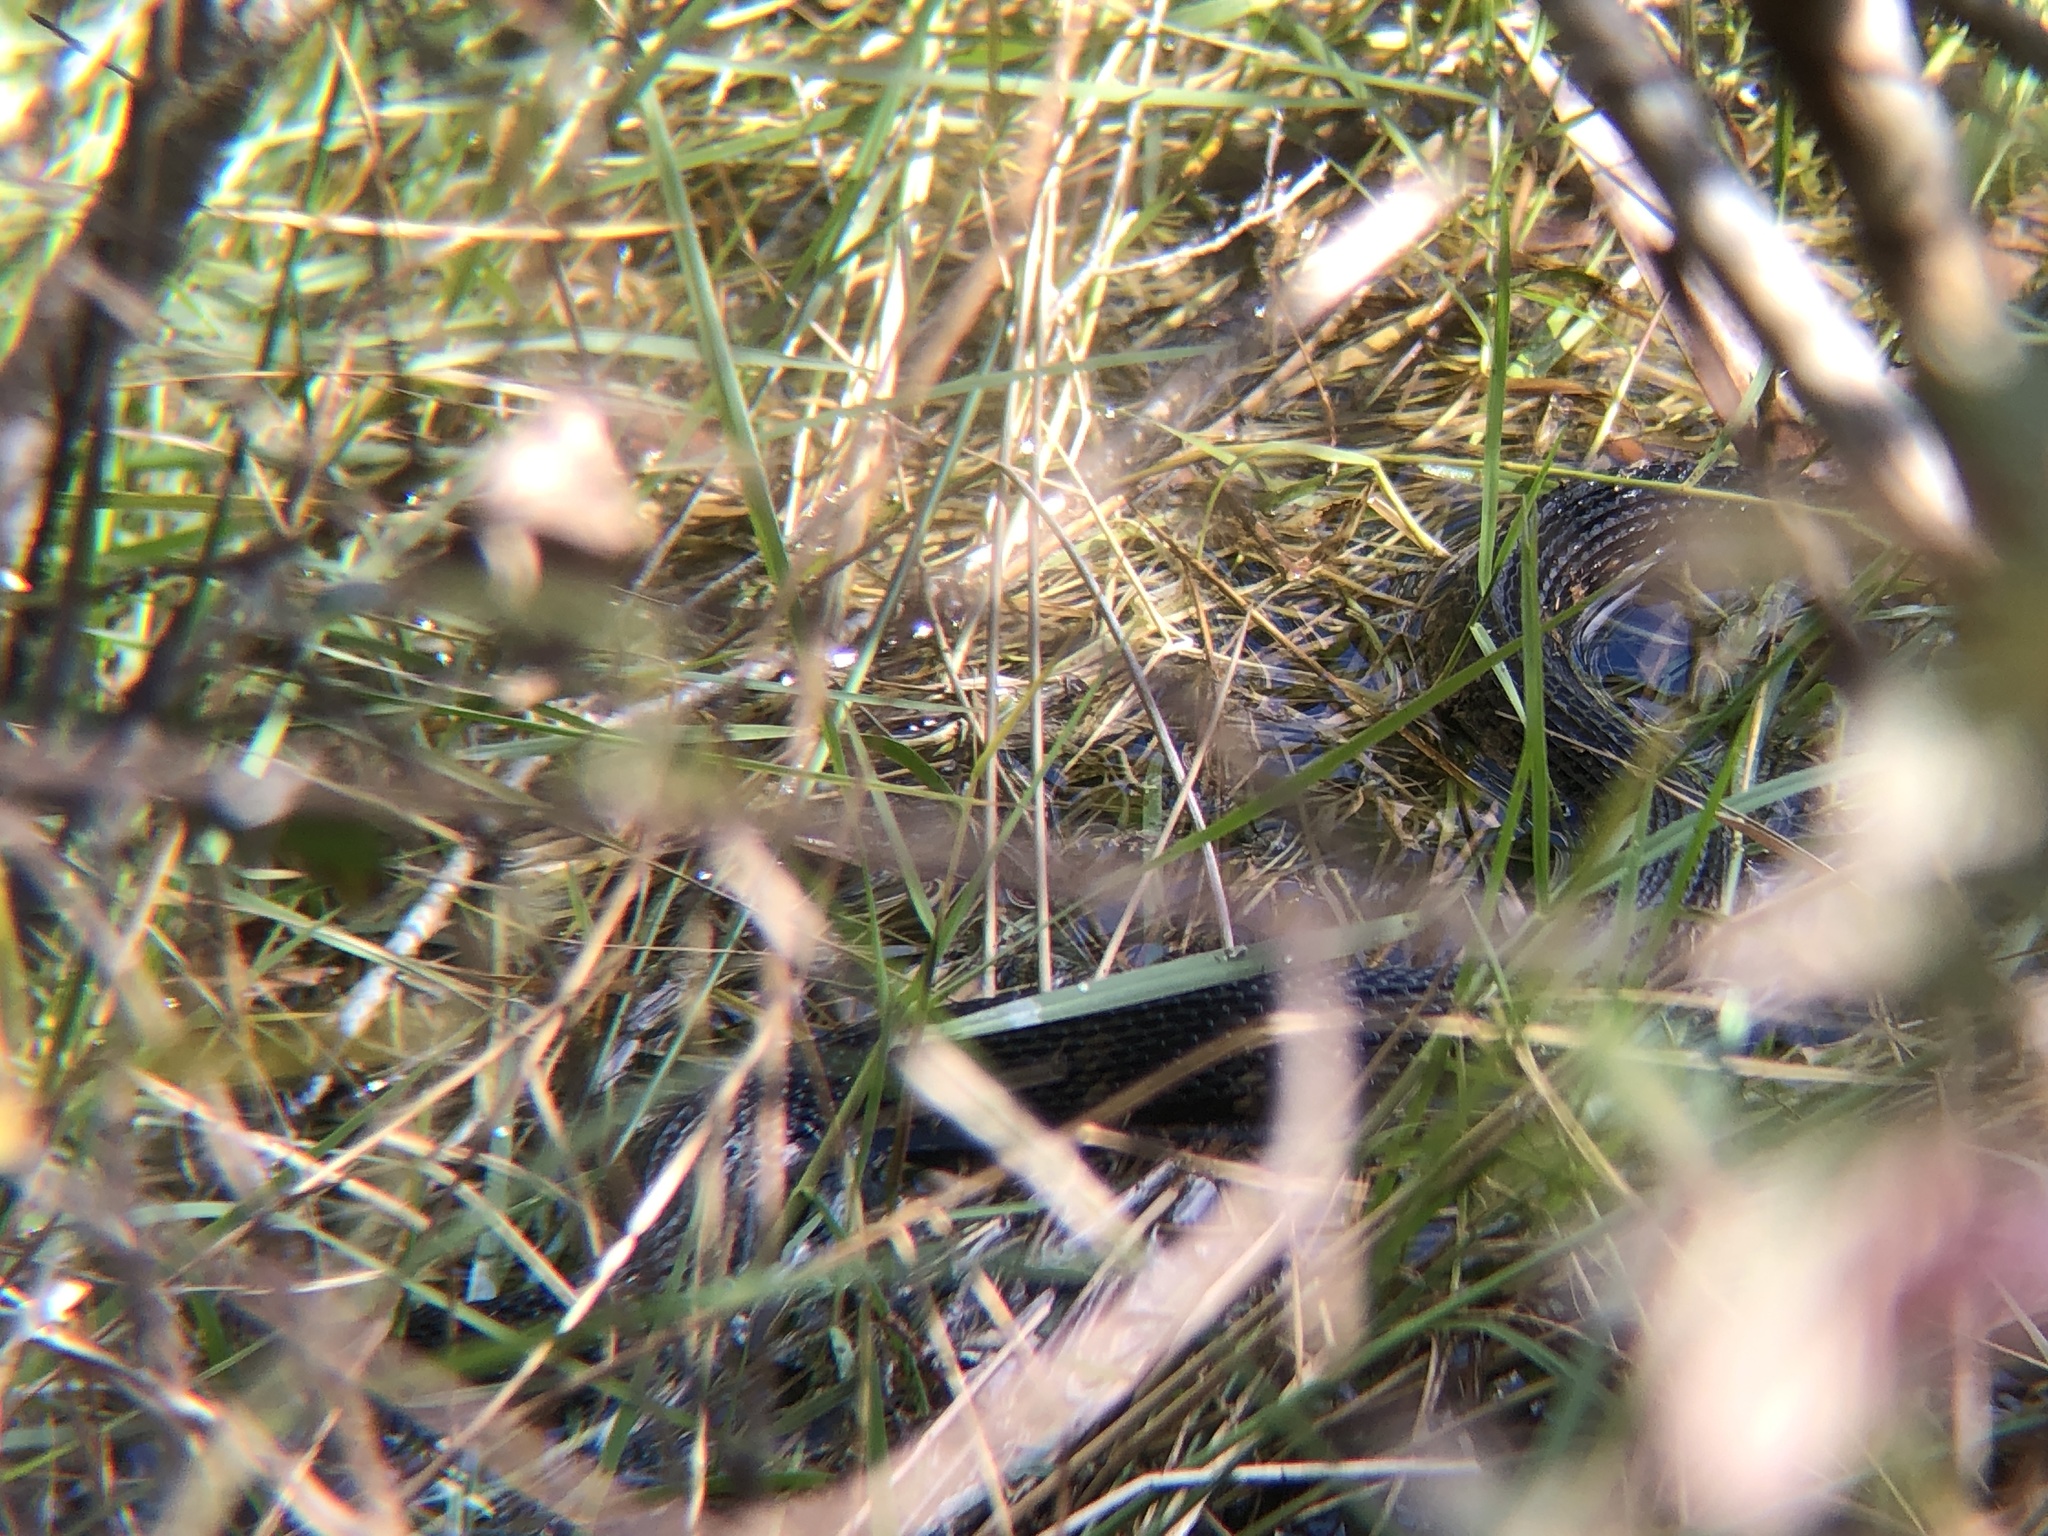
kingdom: Animalia
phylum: Chordata
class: Squamata
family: Colubridae
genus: Nerodia
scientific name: Nerodia fasciata
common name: Southern water snake
